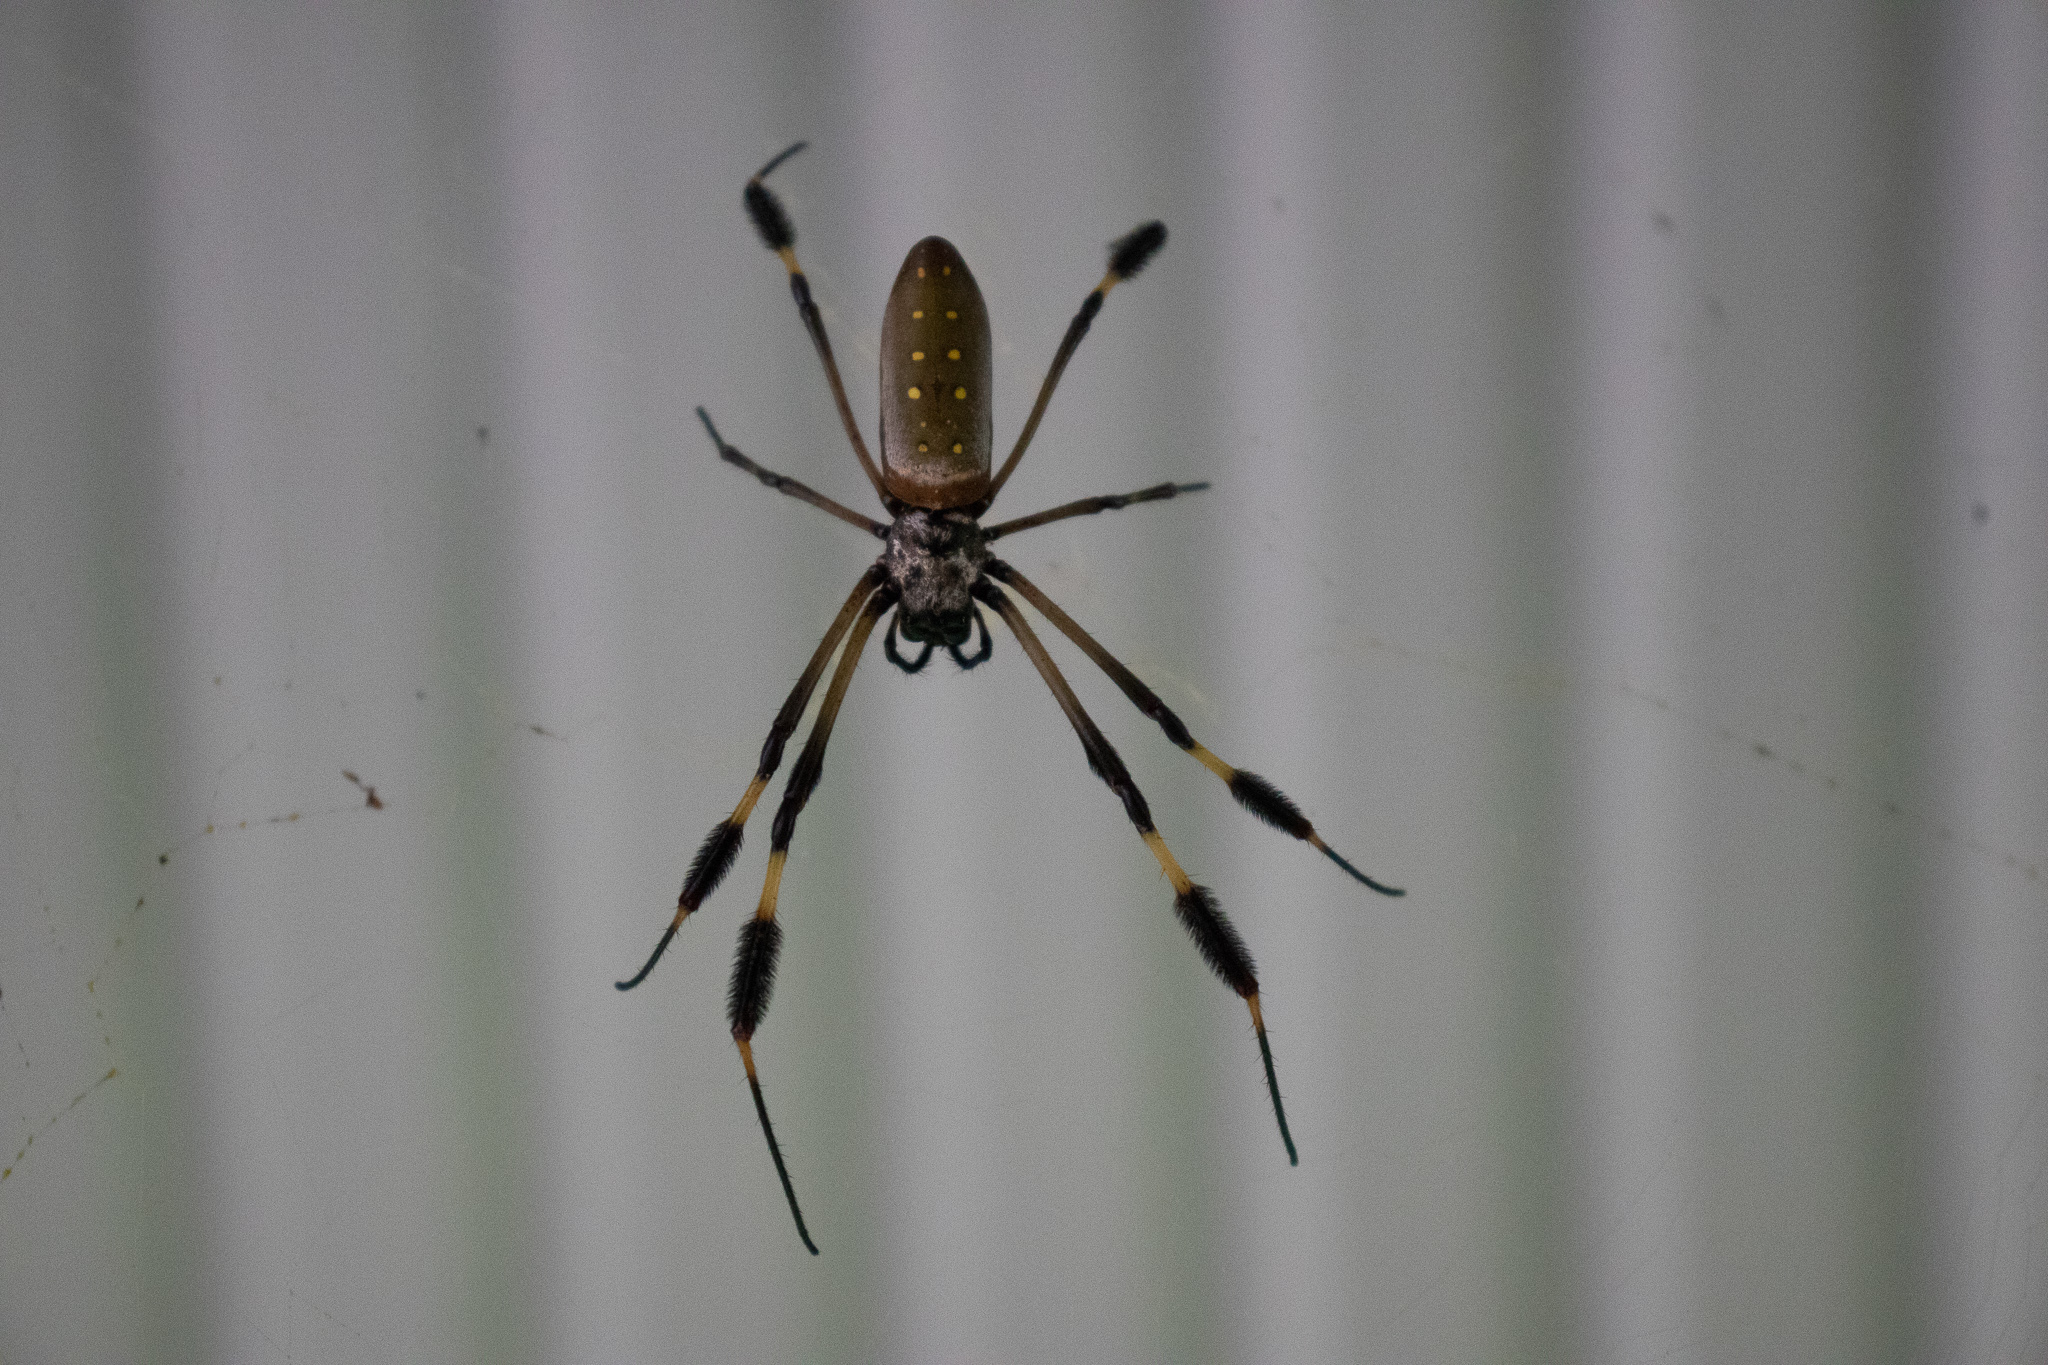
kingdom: Animalia
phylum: Arthropoda
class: Arachnida
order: Araneae
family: Araneidae
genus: Trichonephila
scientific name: Trichonephila clavipes
